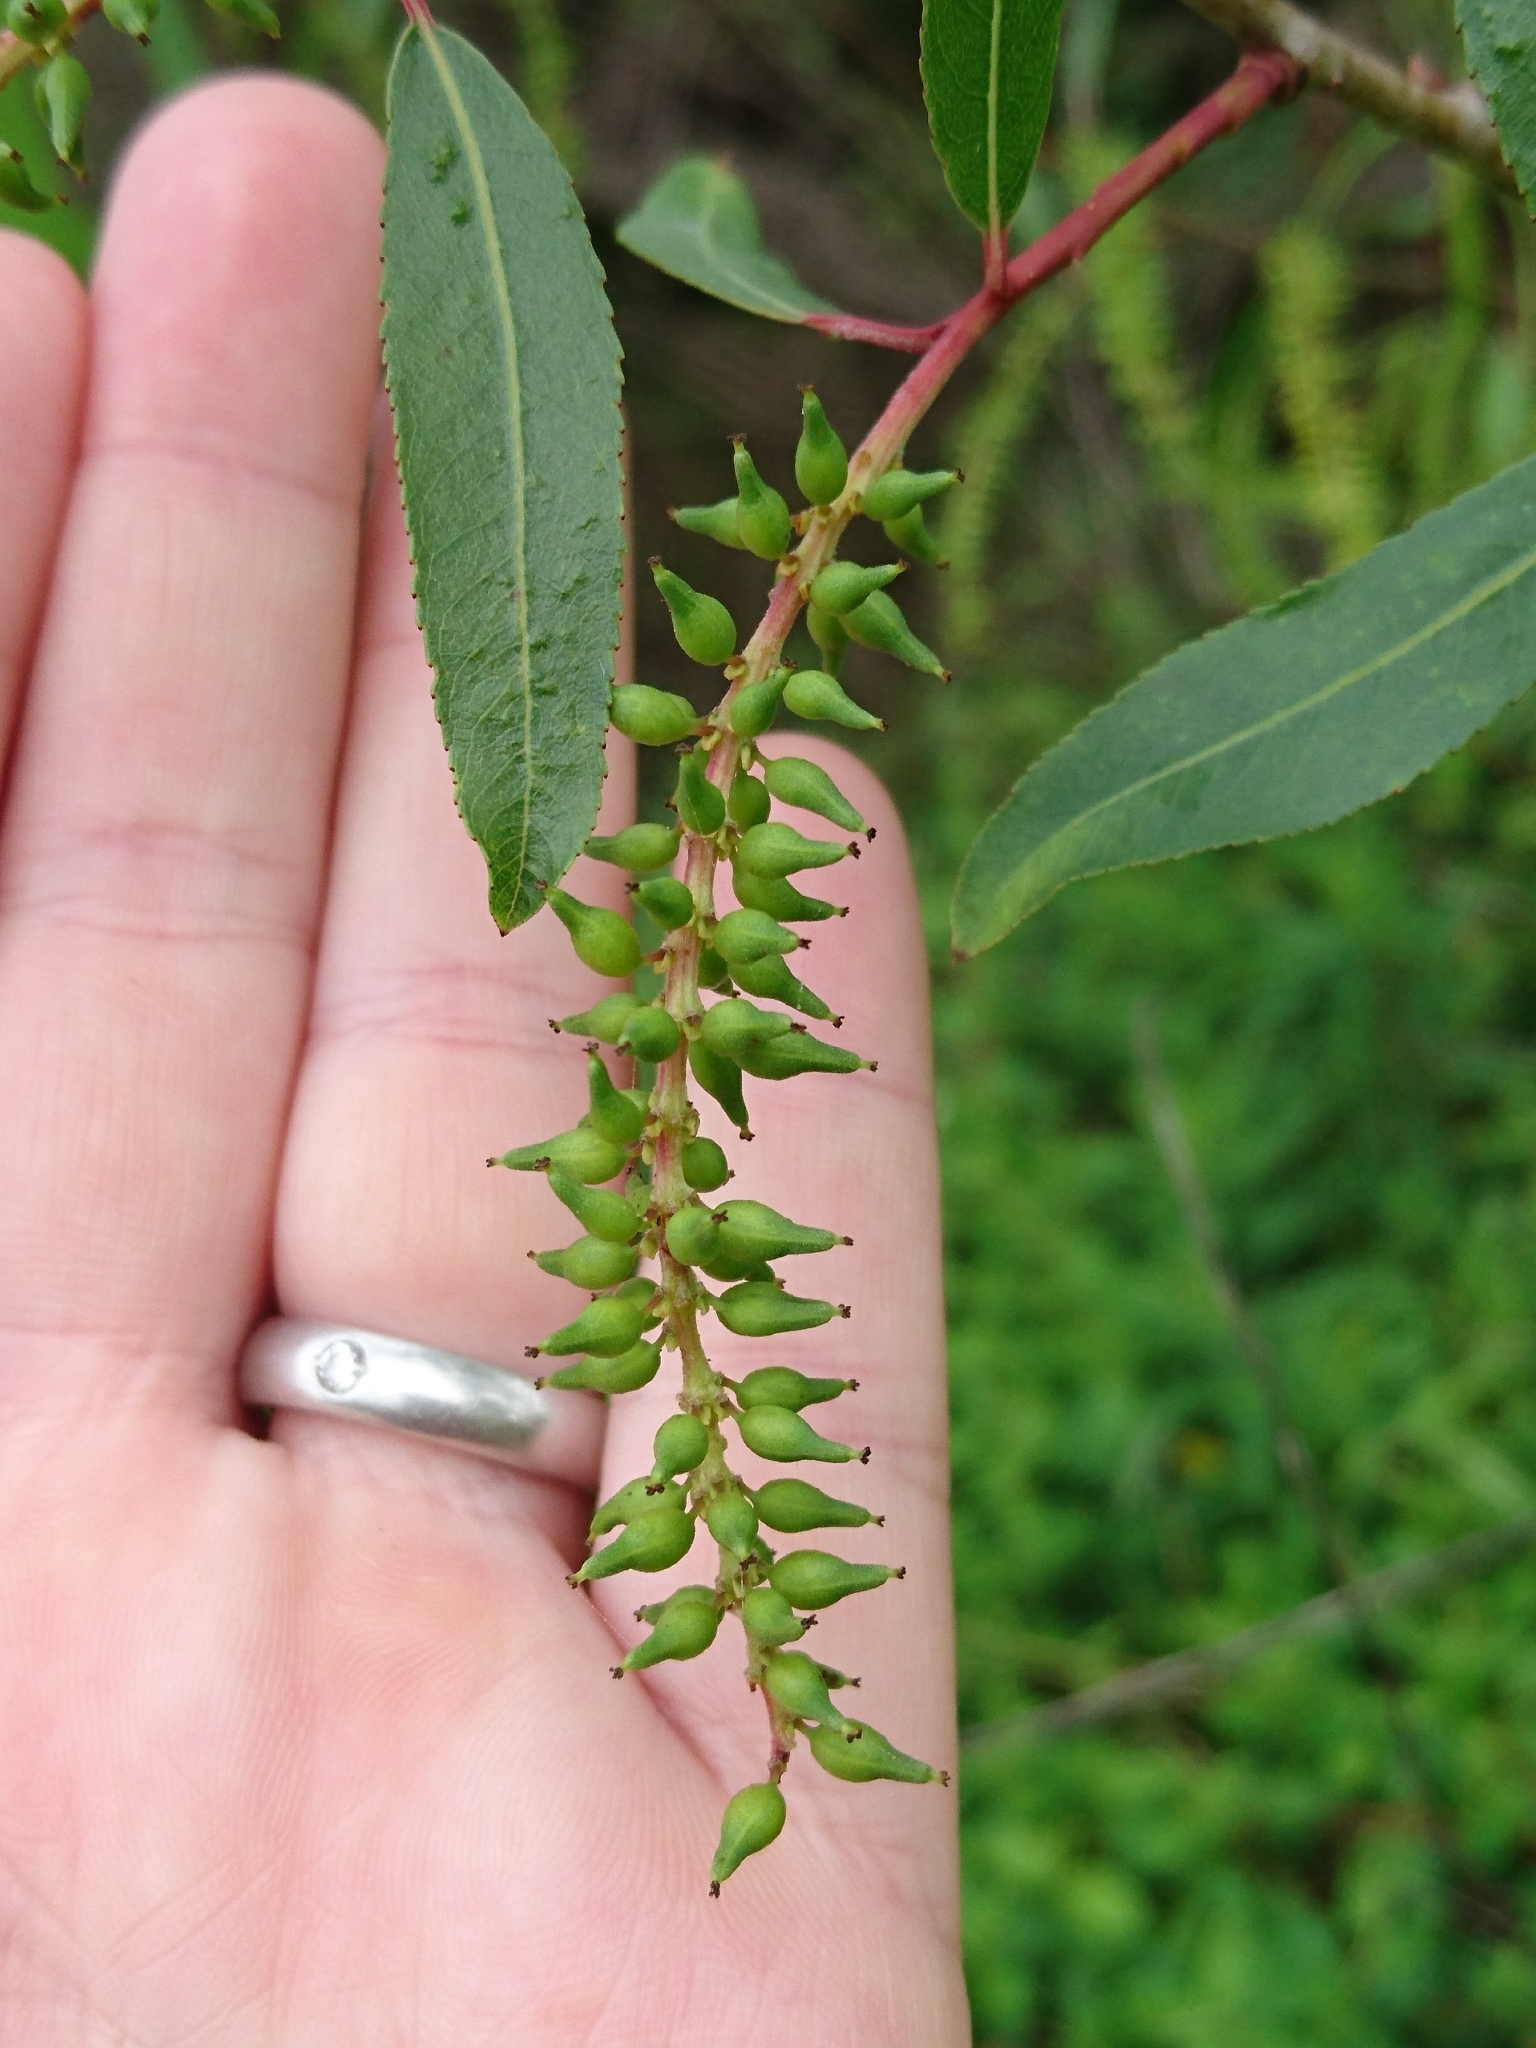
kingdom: Plantae
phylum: Tracheophyta
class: Magnoliopsida
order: Malpighiales
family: Salicaceae
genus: Salix
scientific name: Salix nigra
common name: Black willow
